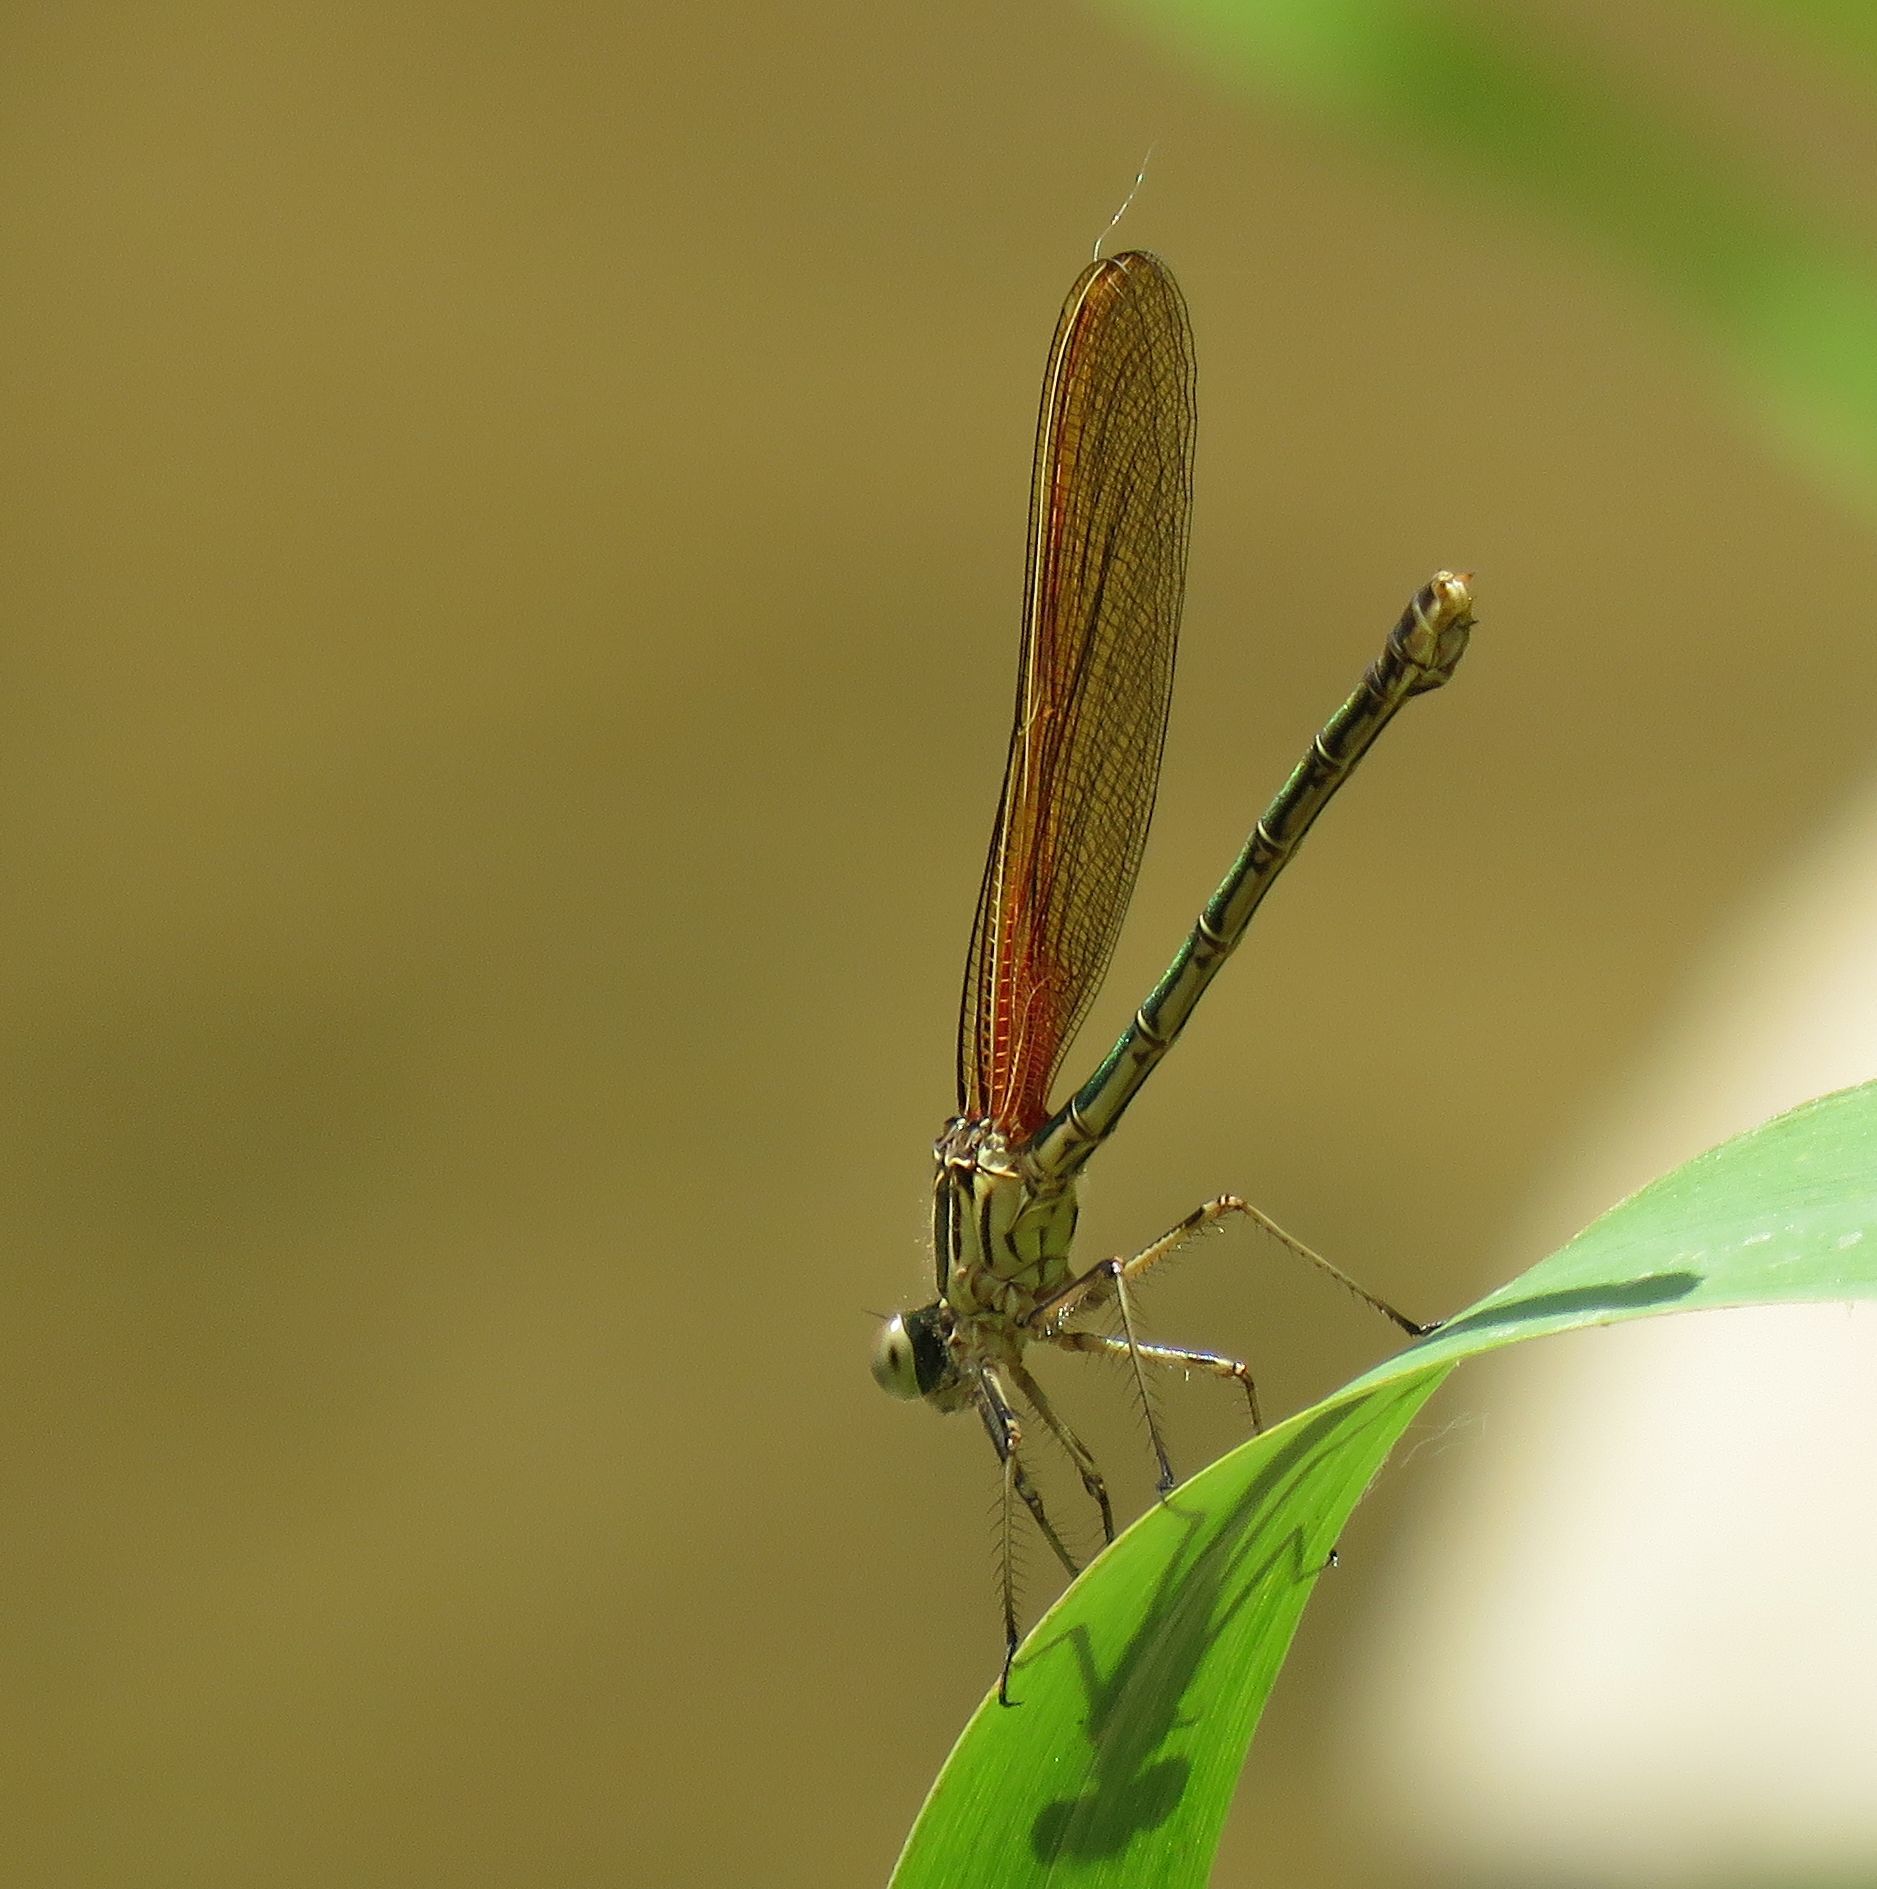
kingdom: Animalia
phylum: Arthropoda
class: Insecta
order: Odonata
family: Calopterygidae
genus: Hetaerina
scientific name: Hetaerina americana
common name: American rubyspot
